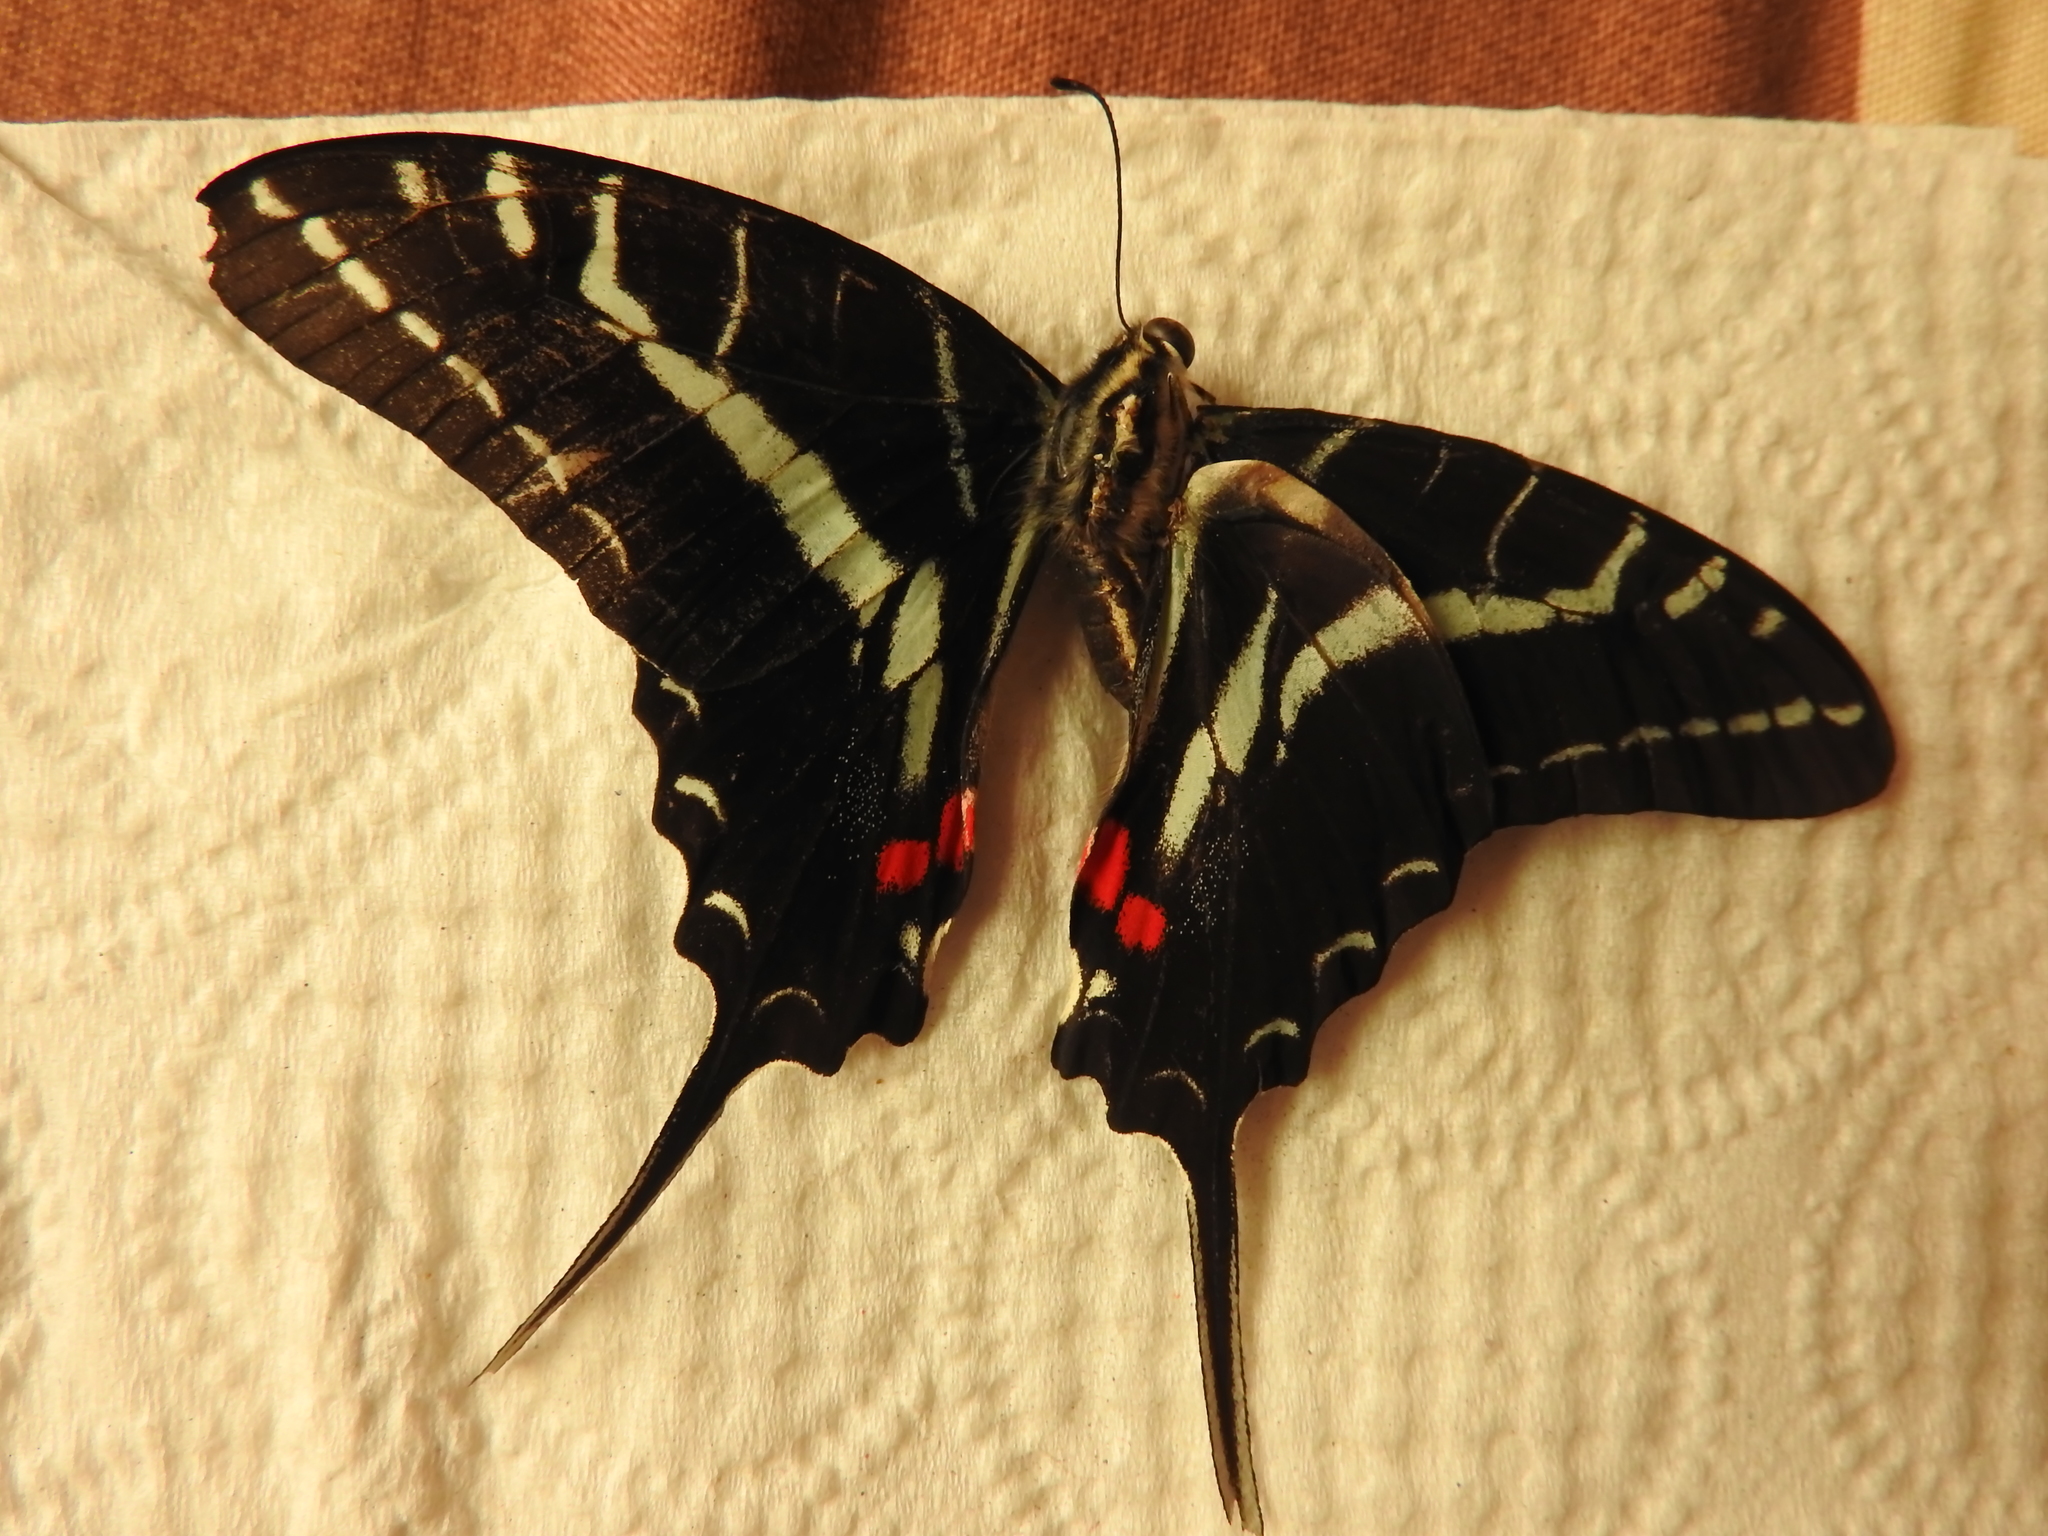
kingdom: Animalia
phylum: Arthropoda
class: Insecta
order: Lepidoptera
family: Papilionidae
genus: Protographium
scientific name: Protographium philolaus
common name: Dark zebra swallowtail
